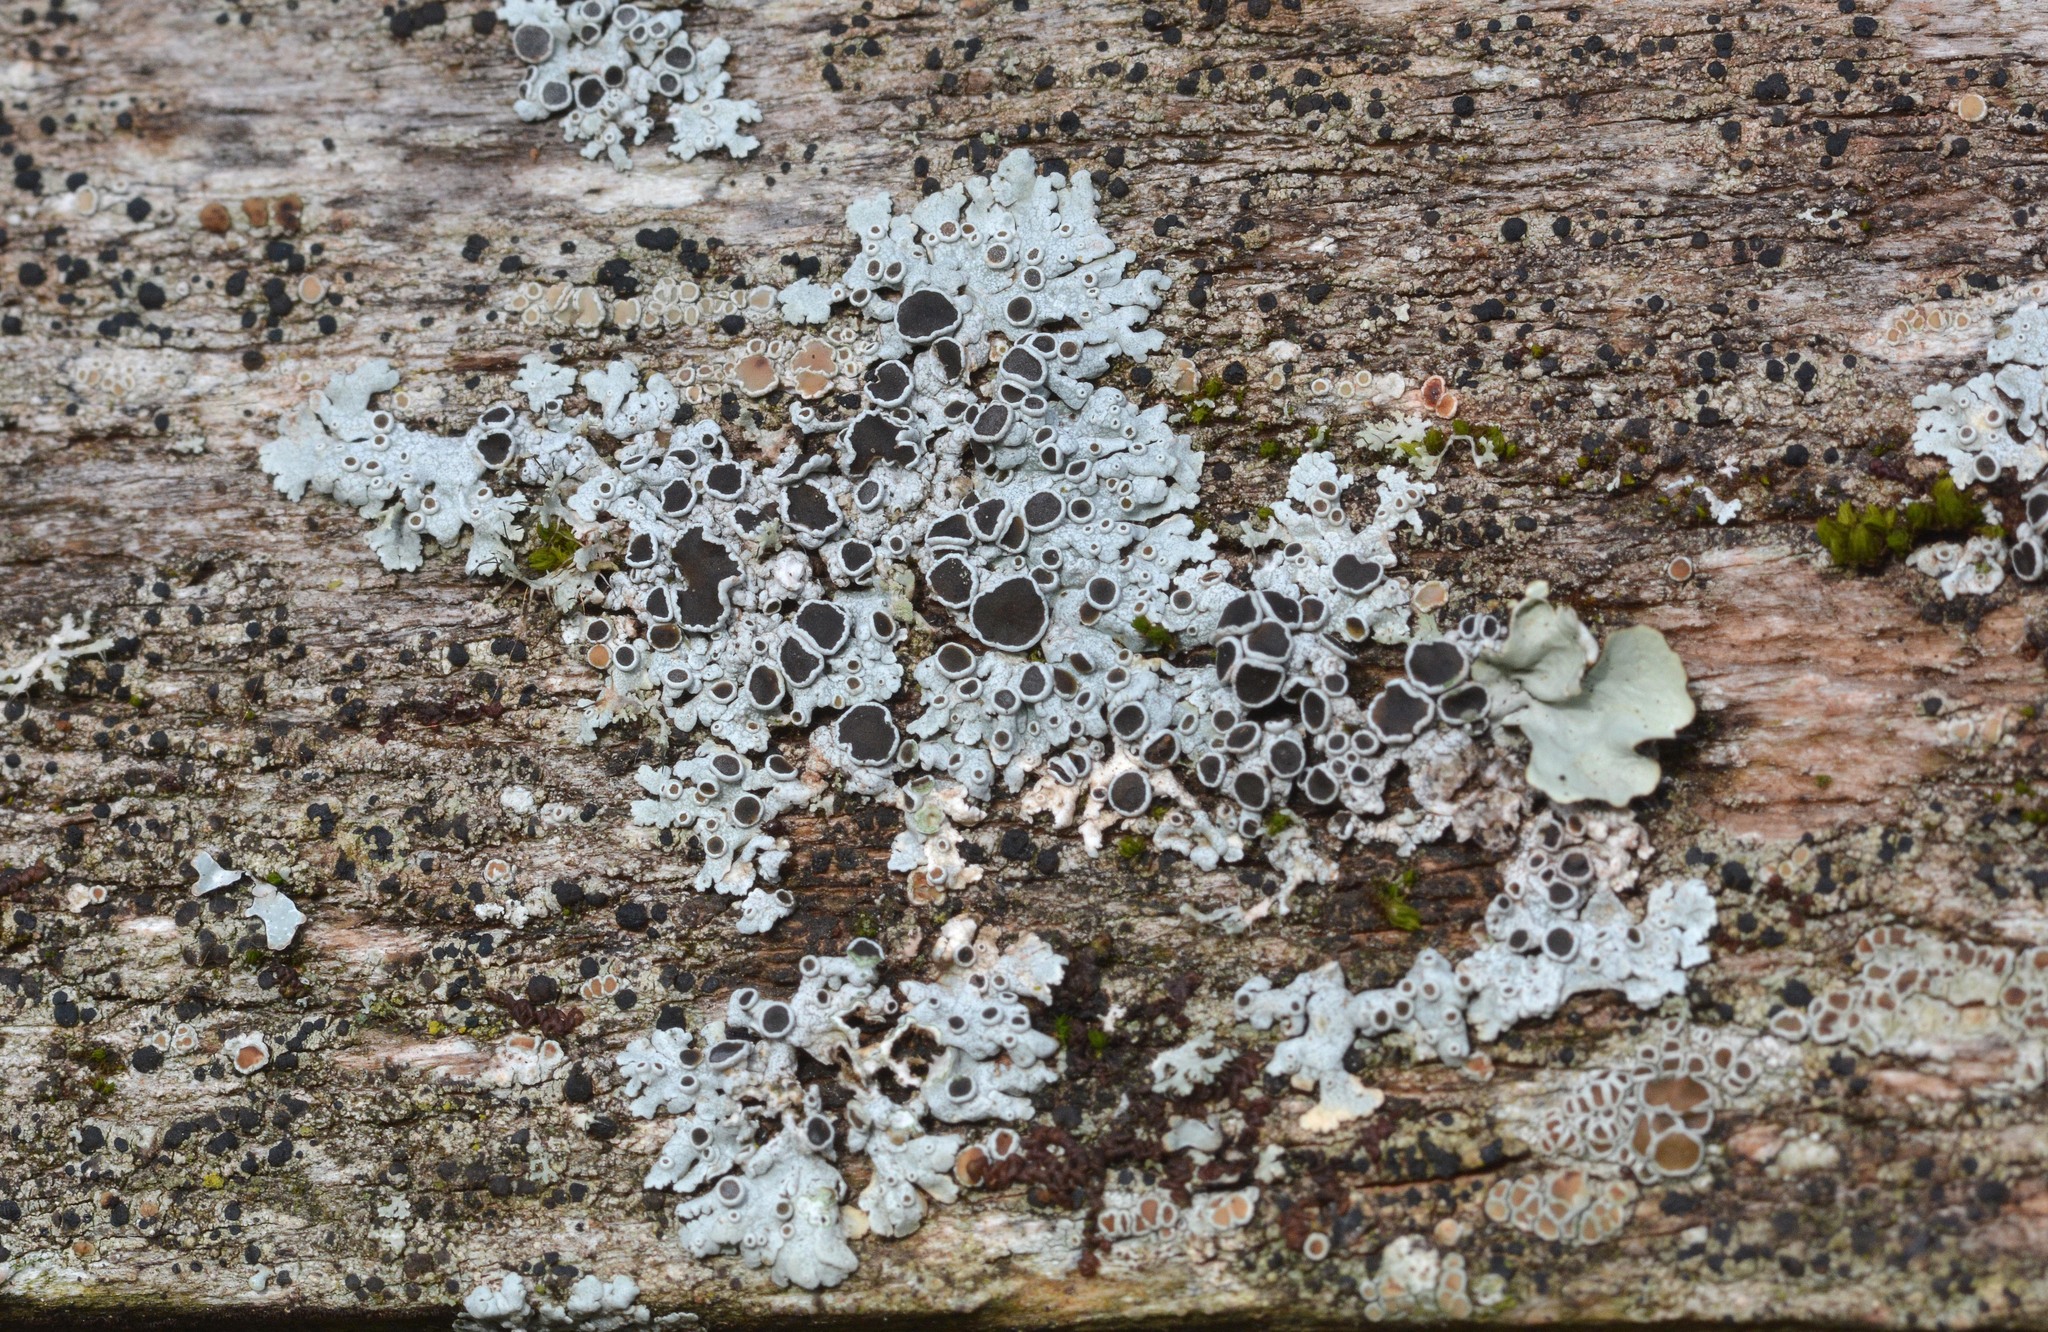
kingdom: Fungi
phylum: Ascomycota
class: Lecanoromycetes
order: Caliciales
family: Physciaceae
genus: Physcia
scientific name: Physcia aipolia
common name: Hoary rosette lichen
